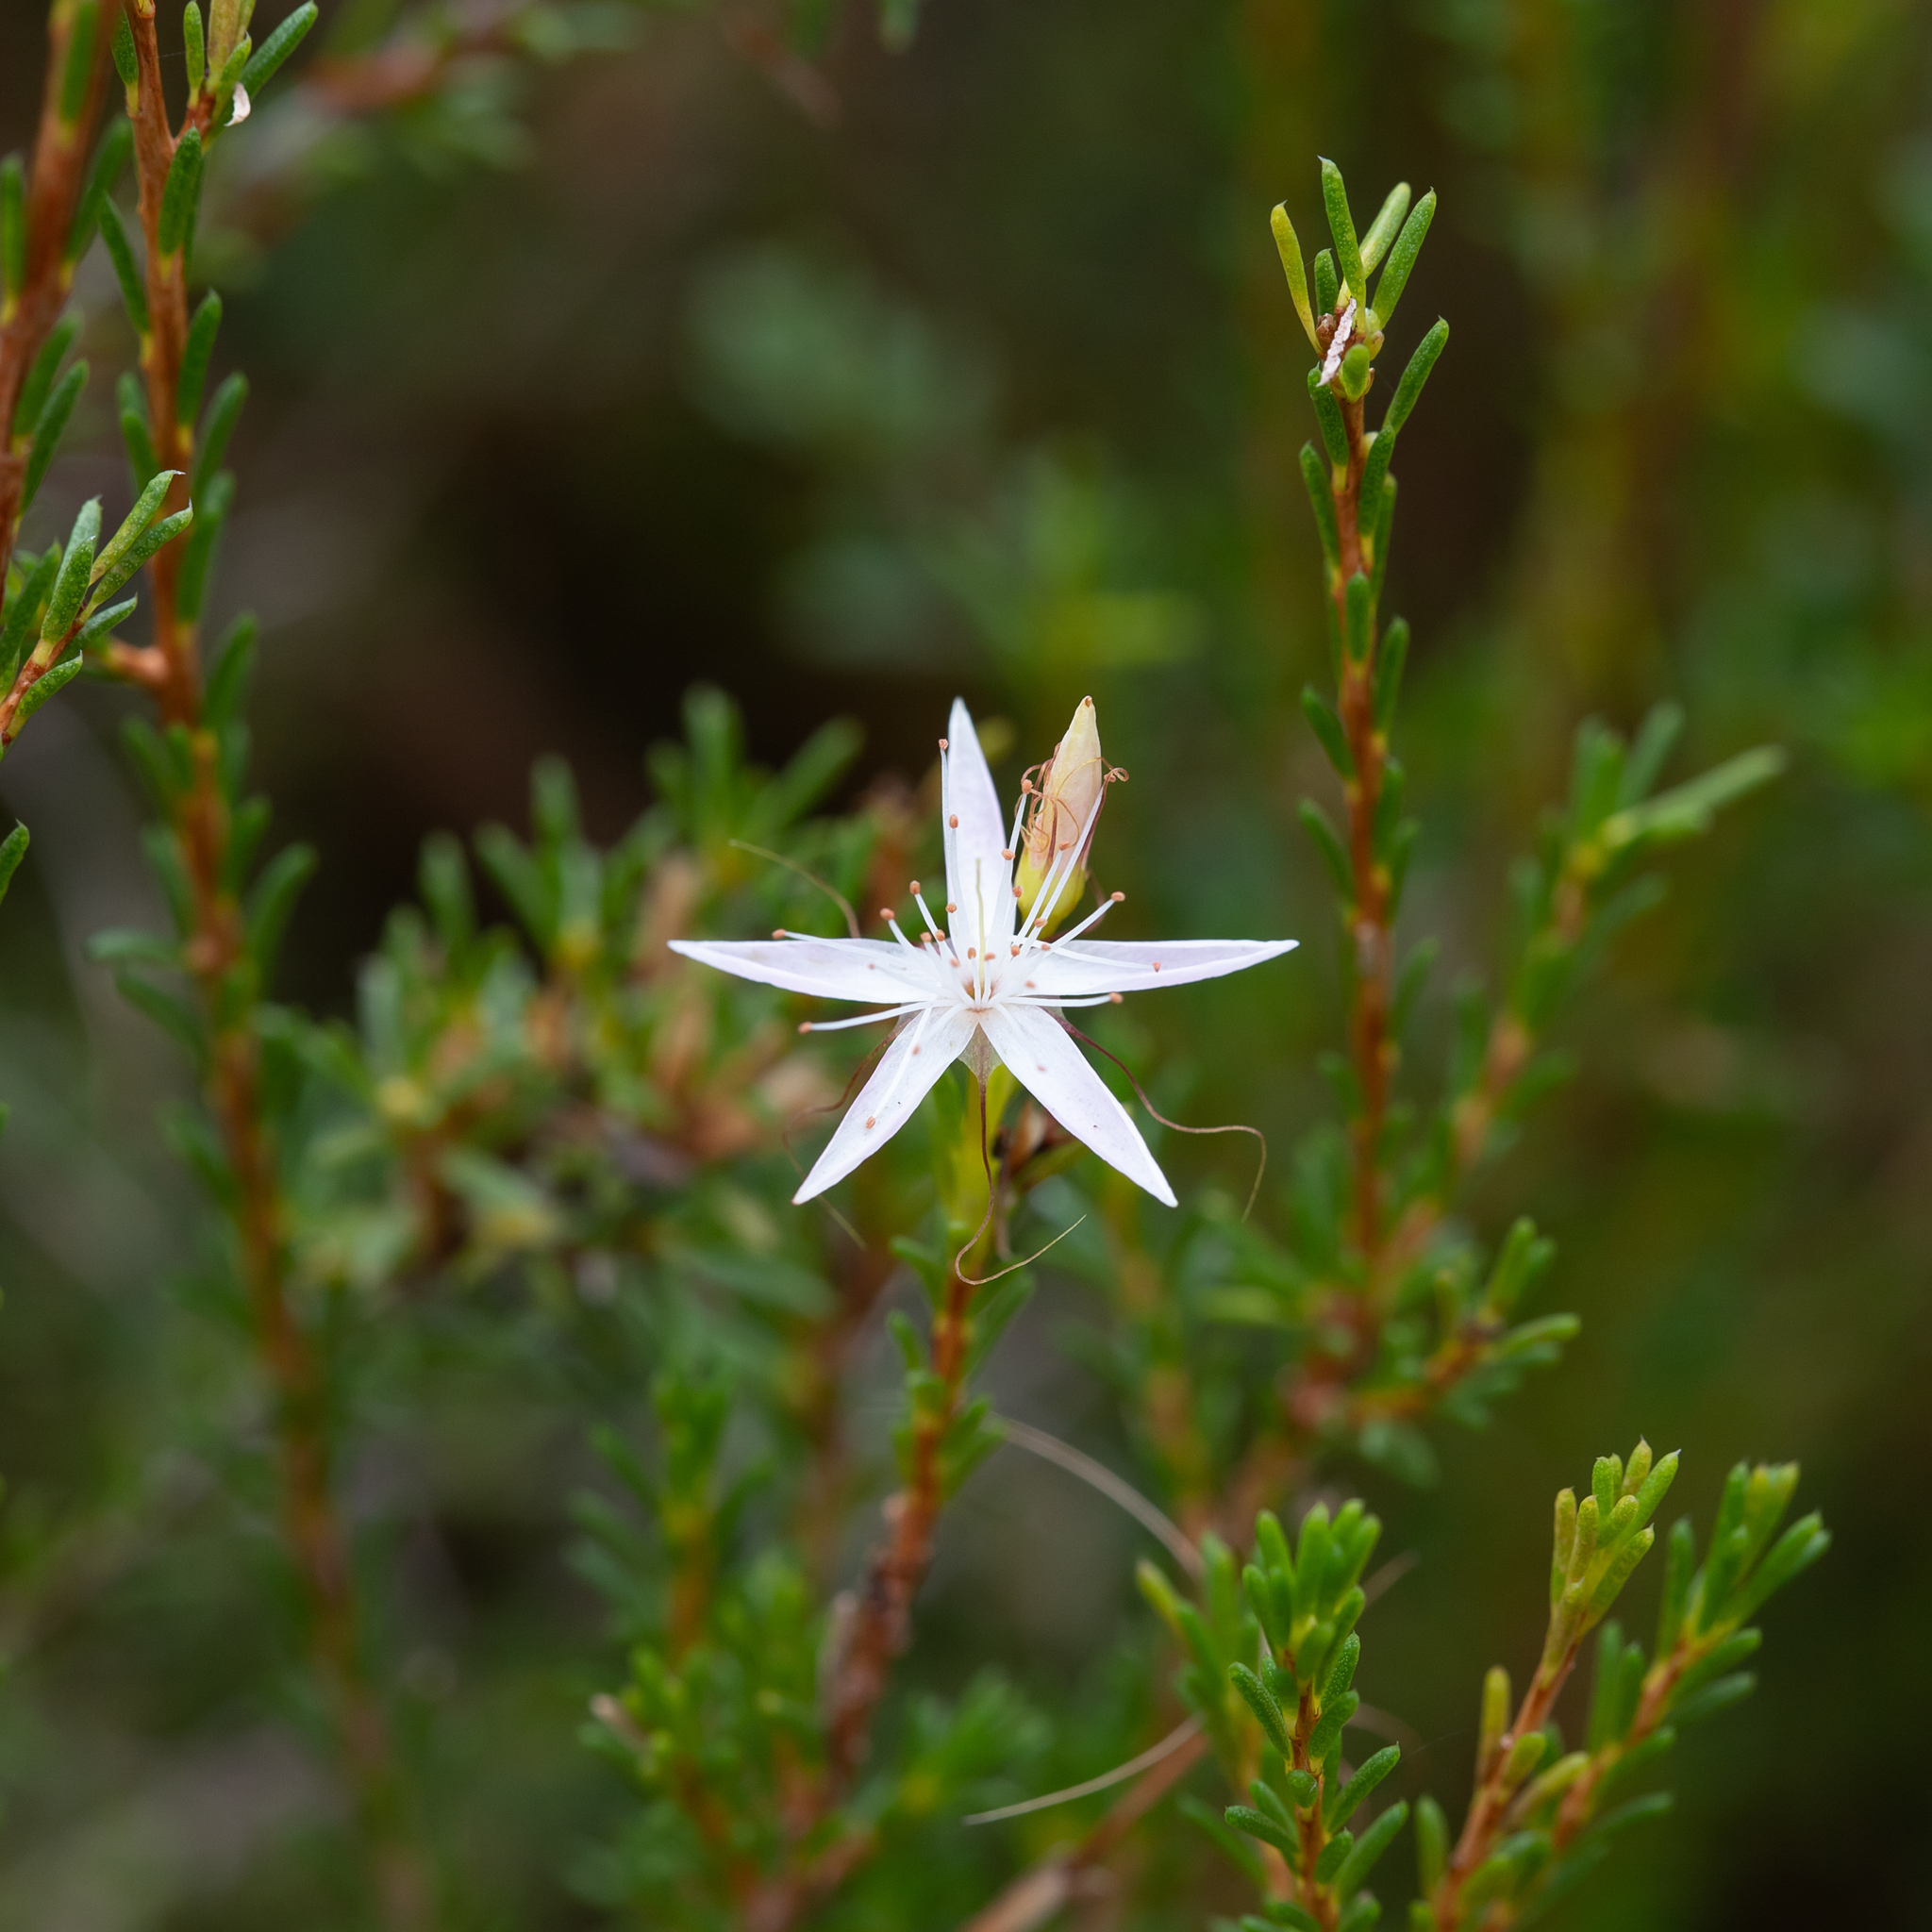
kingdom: Plantae
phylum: Tracheophyta
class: Magnoliopsida
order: Myrtales
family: Myrtaceae
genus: Calytrix
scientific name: Calytrix tetragona
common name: Common fringe myrtle
